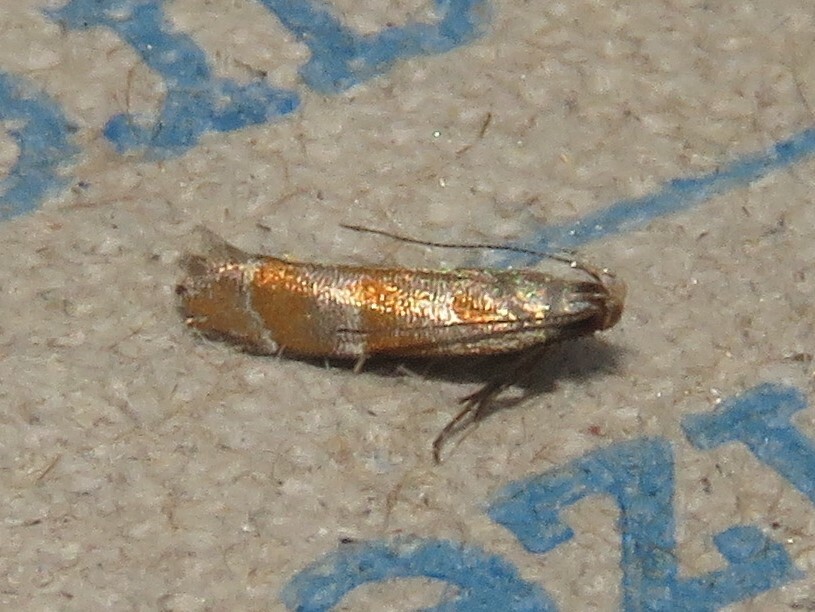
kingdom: Animalia
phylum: Arthropoda
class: Insecta
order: Lepidoptera
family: Gelechiidae
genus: Battaristis
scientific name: Battaristis vittella
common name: Orange stripe-backed moth
